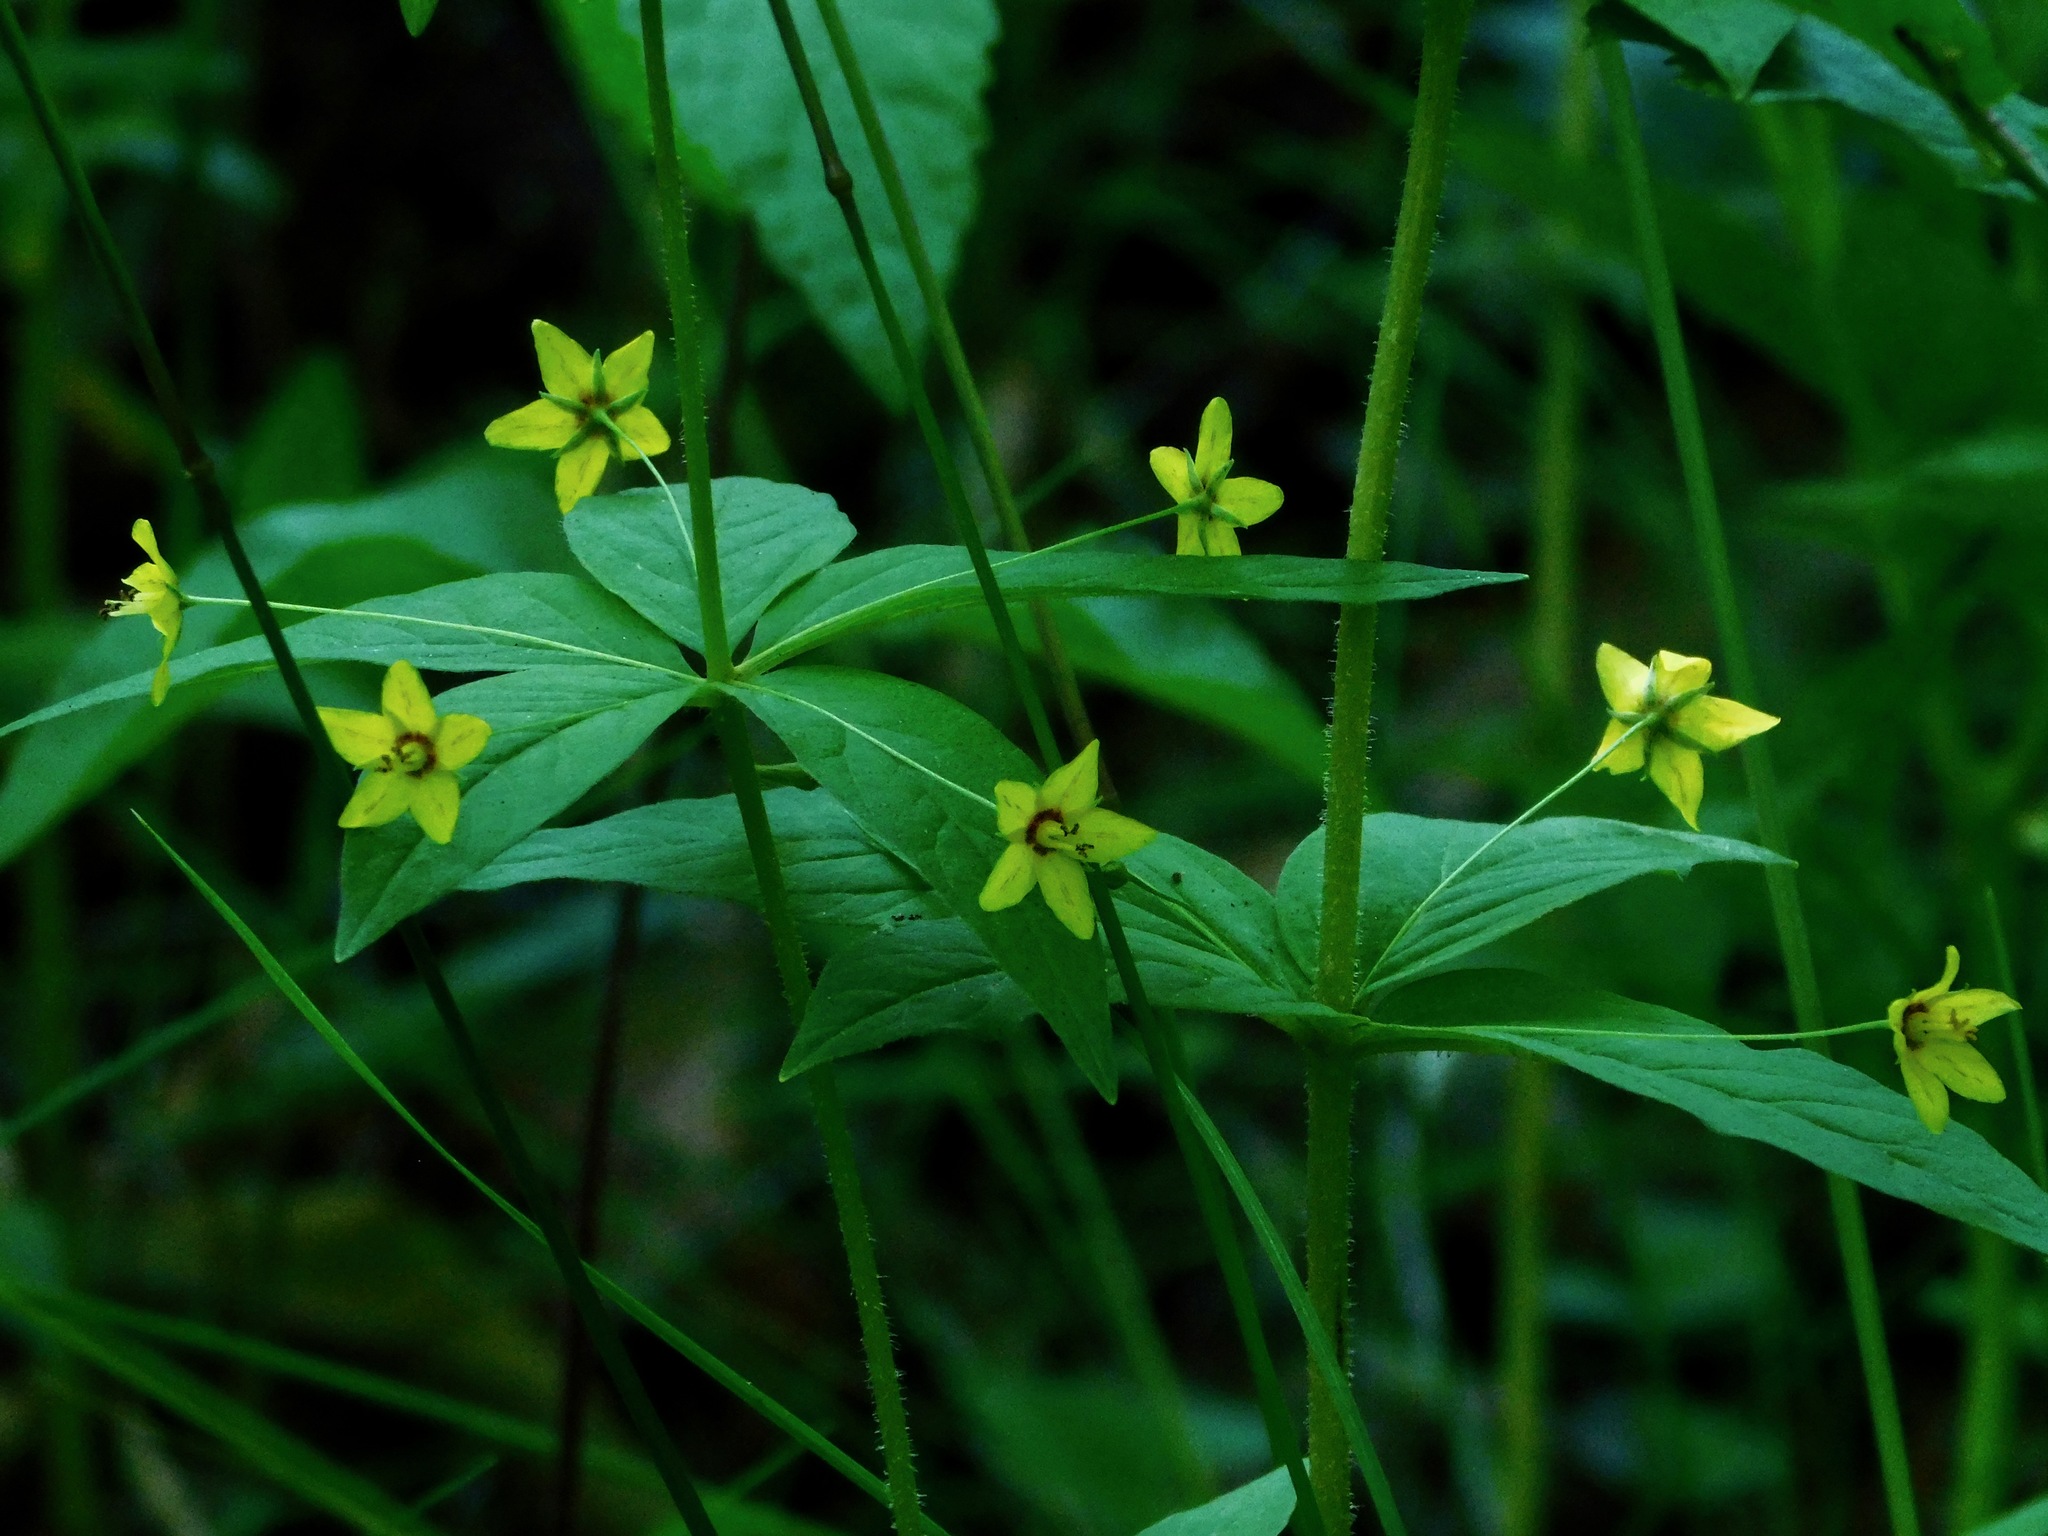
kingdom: Plantae
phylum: Tracheophyta
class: Magnoliopsida
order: Ericales
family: Primulaceae
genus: Lysimachia
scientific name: Lysimachia quadrifolia
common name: Whorled loosestrife
